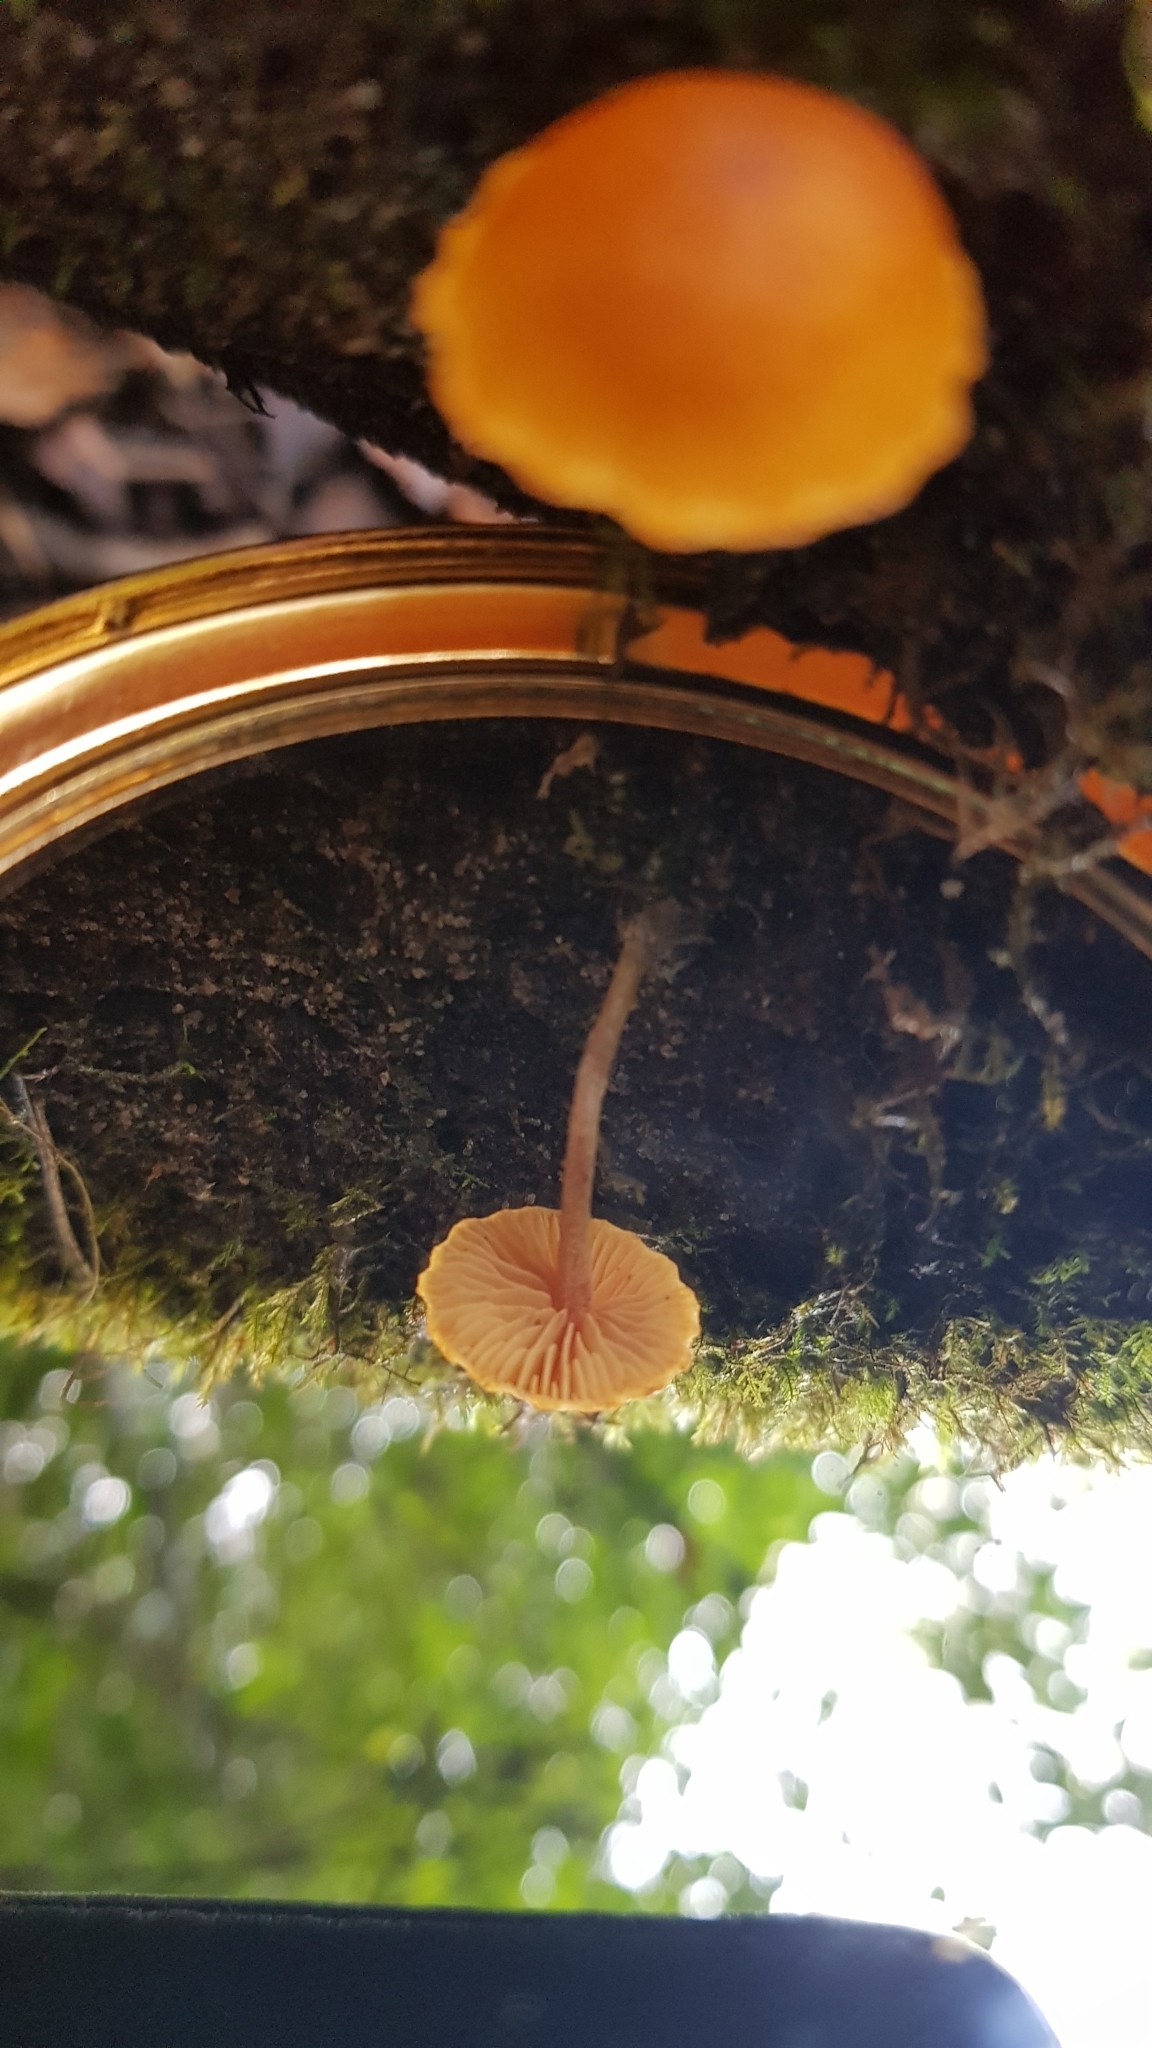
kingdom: Fungi
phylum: Basidiomycota
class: Agaricomycetes
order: Agaricales
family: Strophariaceae
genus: Pholiota
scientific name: Pholiota eucalyptorum
